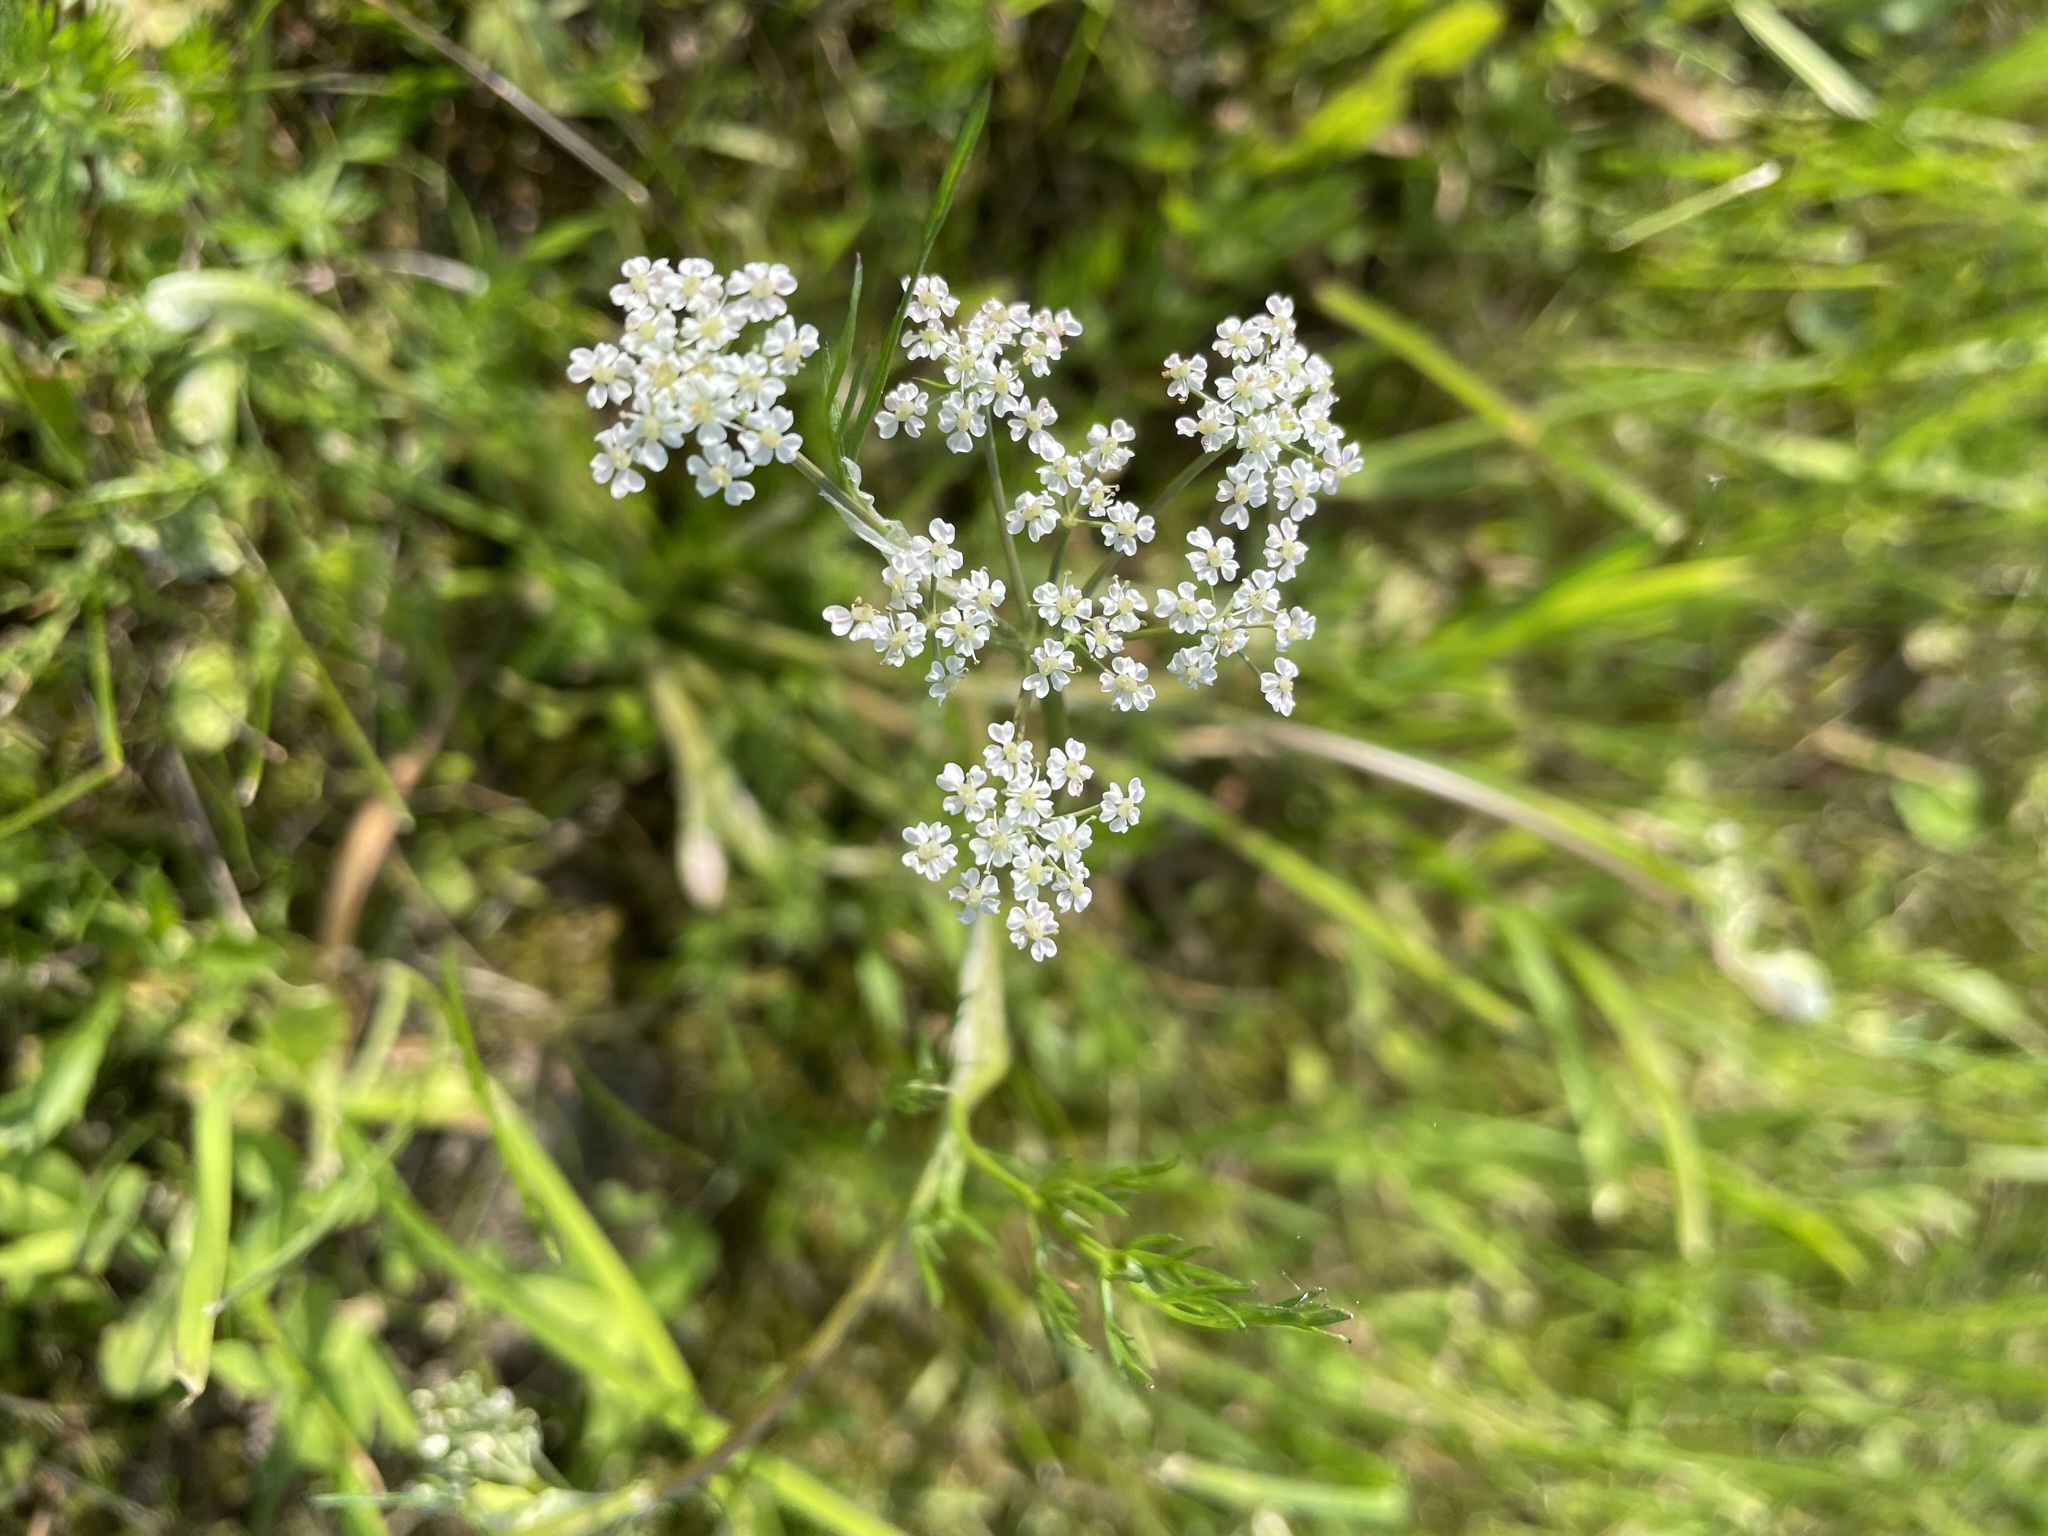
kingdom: Plantae
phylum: Tracheophyta
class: Magnoliopsida
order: Apiales
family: Apiaceae
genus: Carum
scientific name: Carum carvi
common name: Caraway
